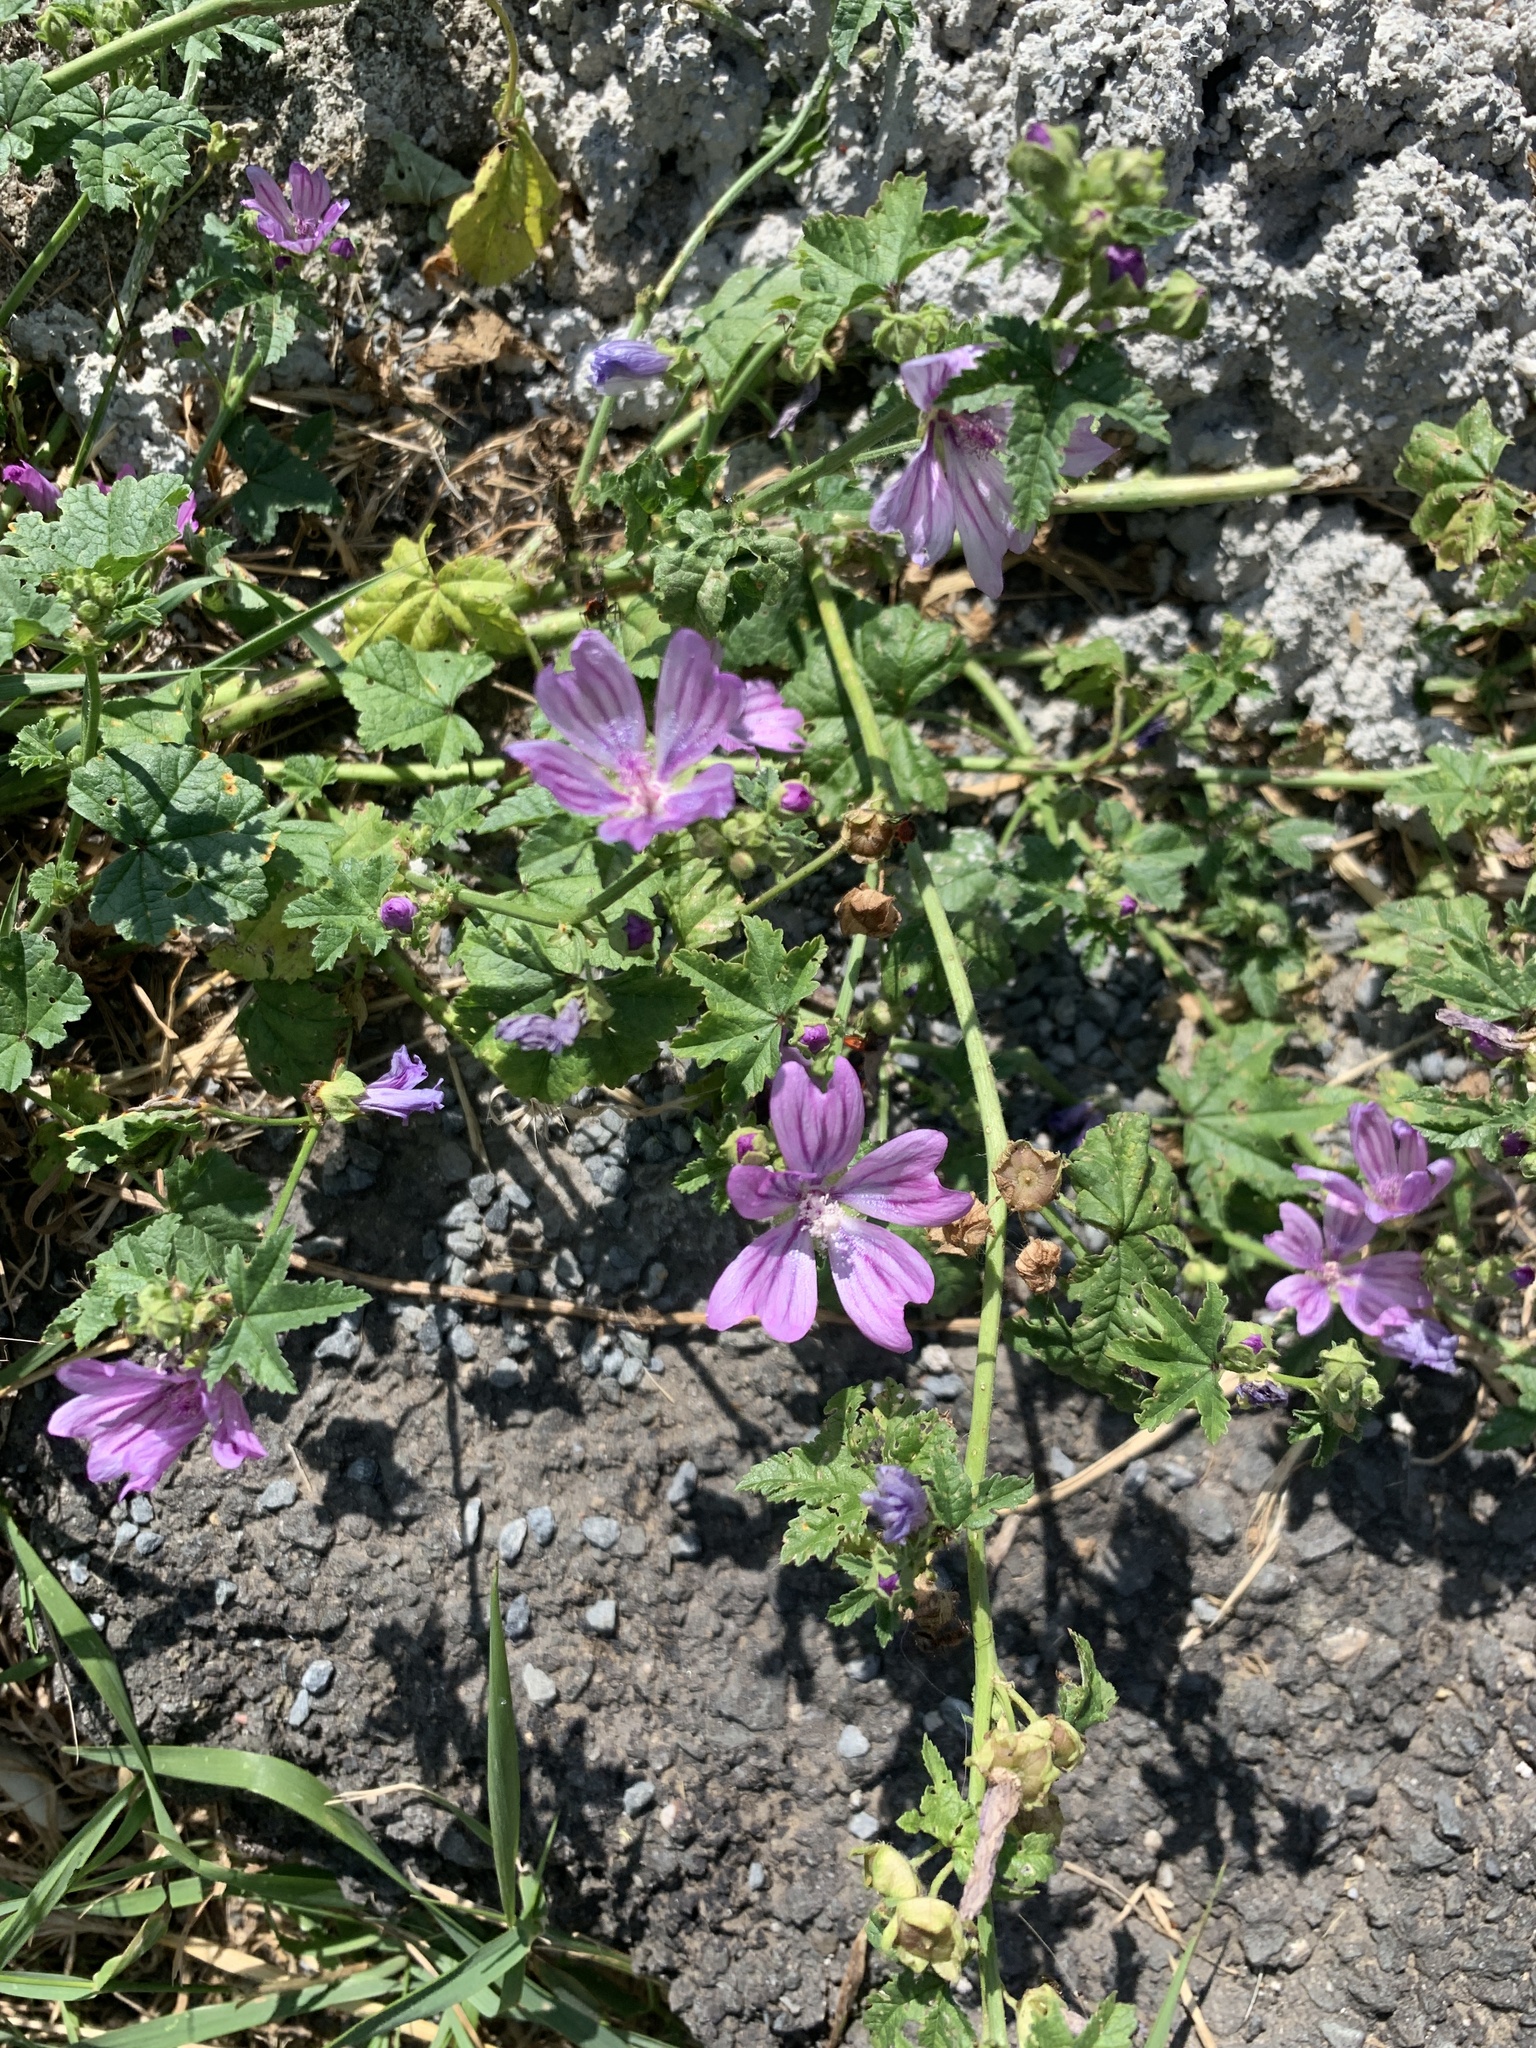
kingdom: Plantae
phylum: Tracheophyta
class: Magnoliopsida
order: Malvales
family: Malvaceae
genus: Malva
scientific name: Malva sylvestris
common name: Common mallow
